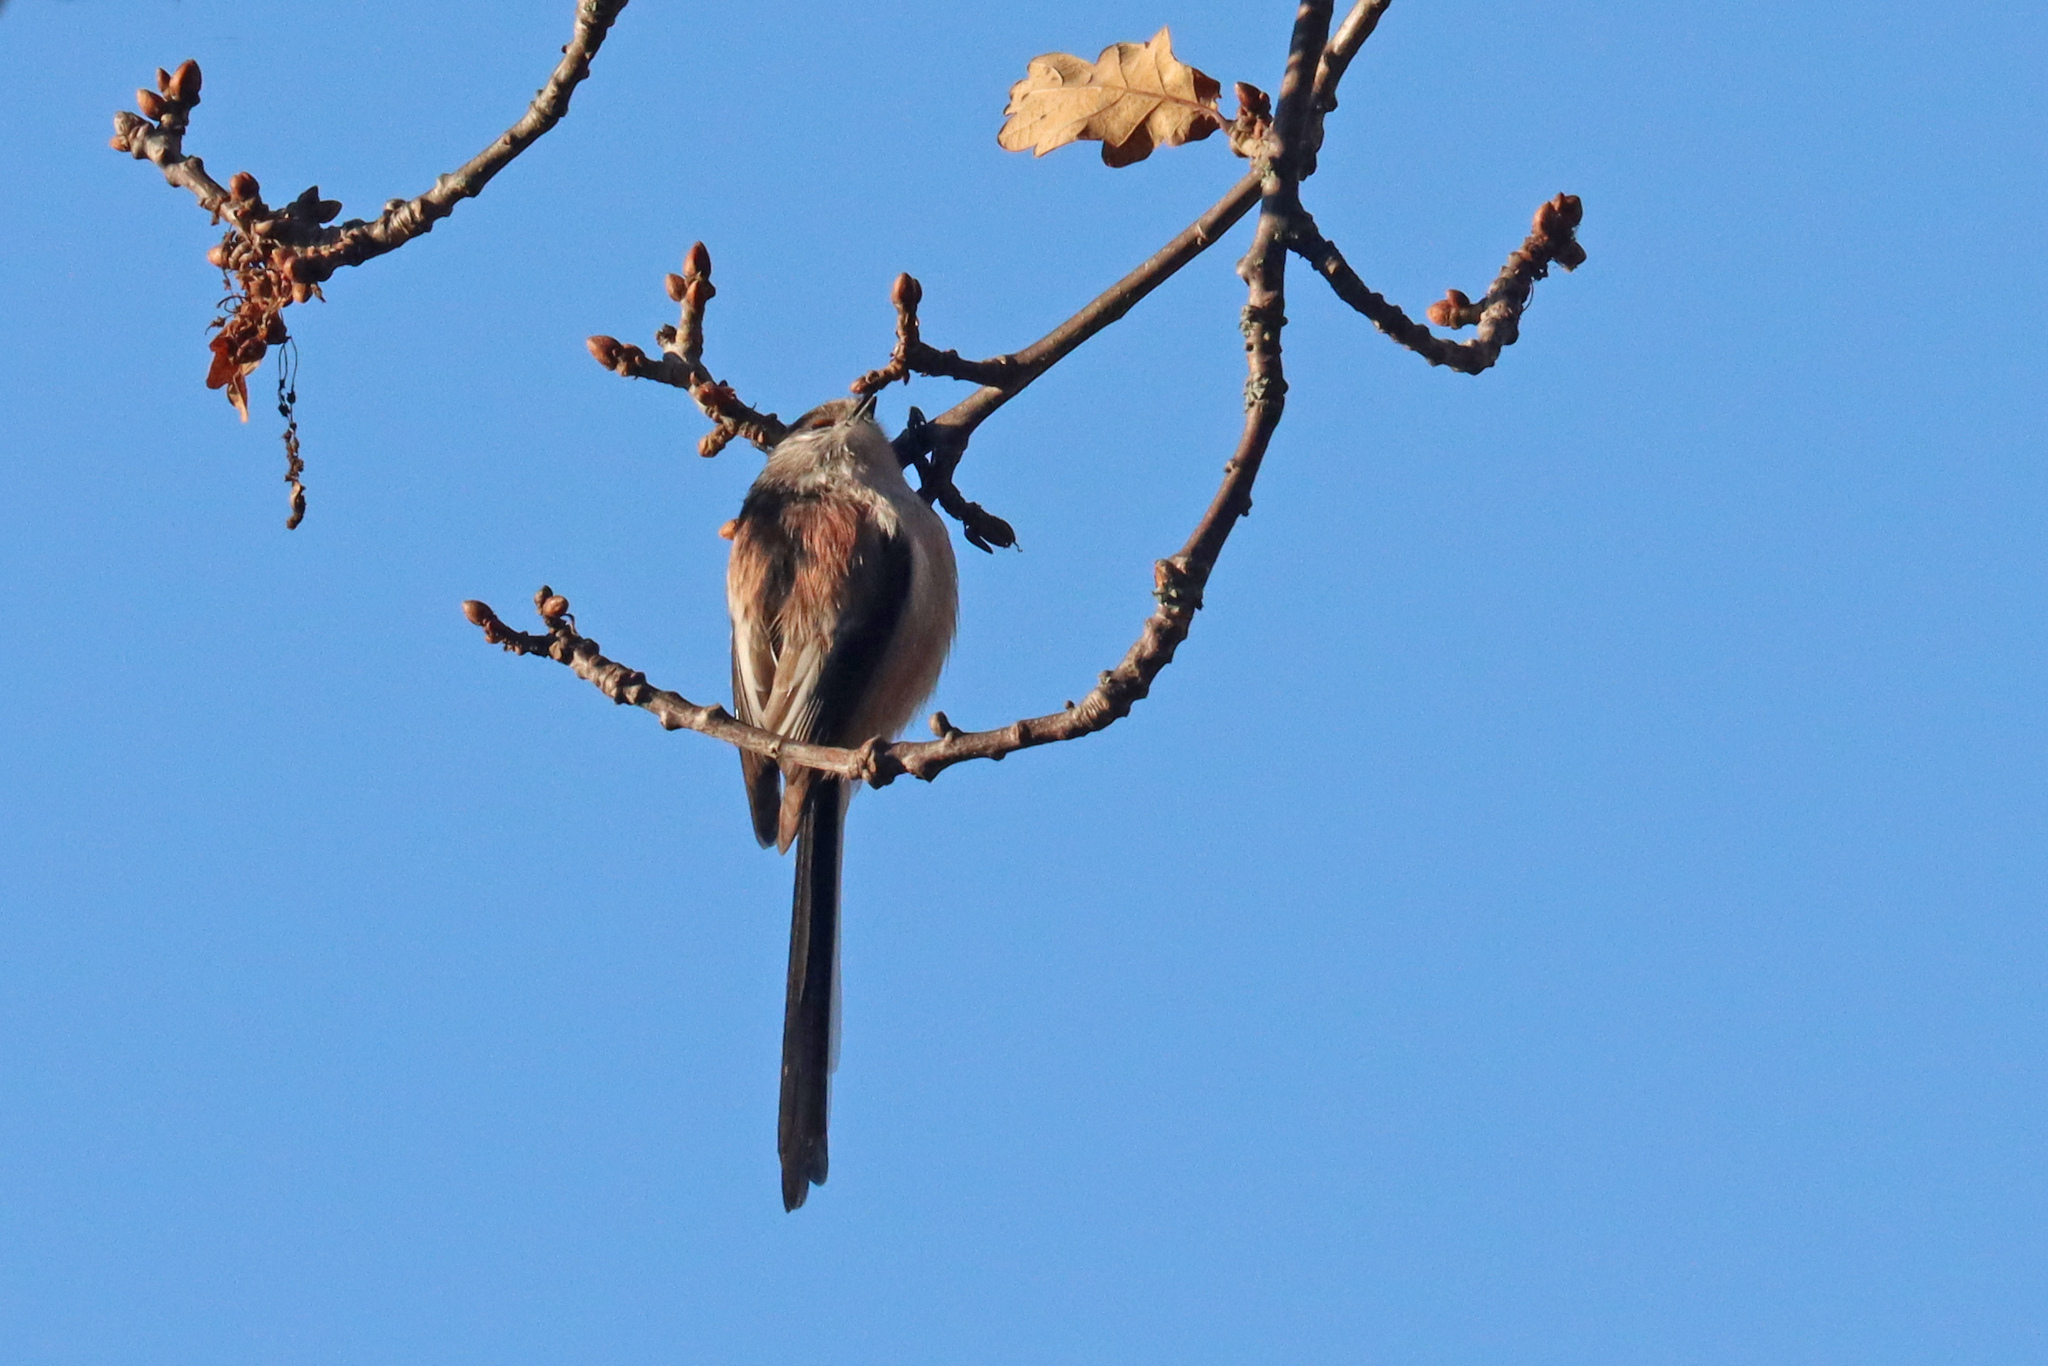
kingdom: Animalia
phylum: Chordata
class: Aves
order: Passeriformes
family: Aegithalidae
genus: Aegithalos
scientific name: Aegithalos caudatus
